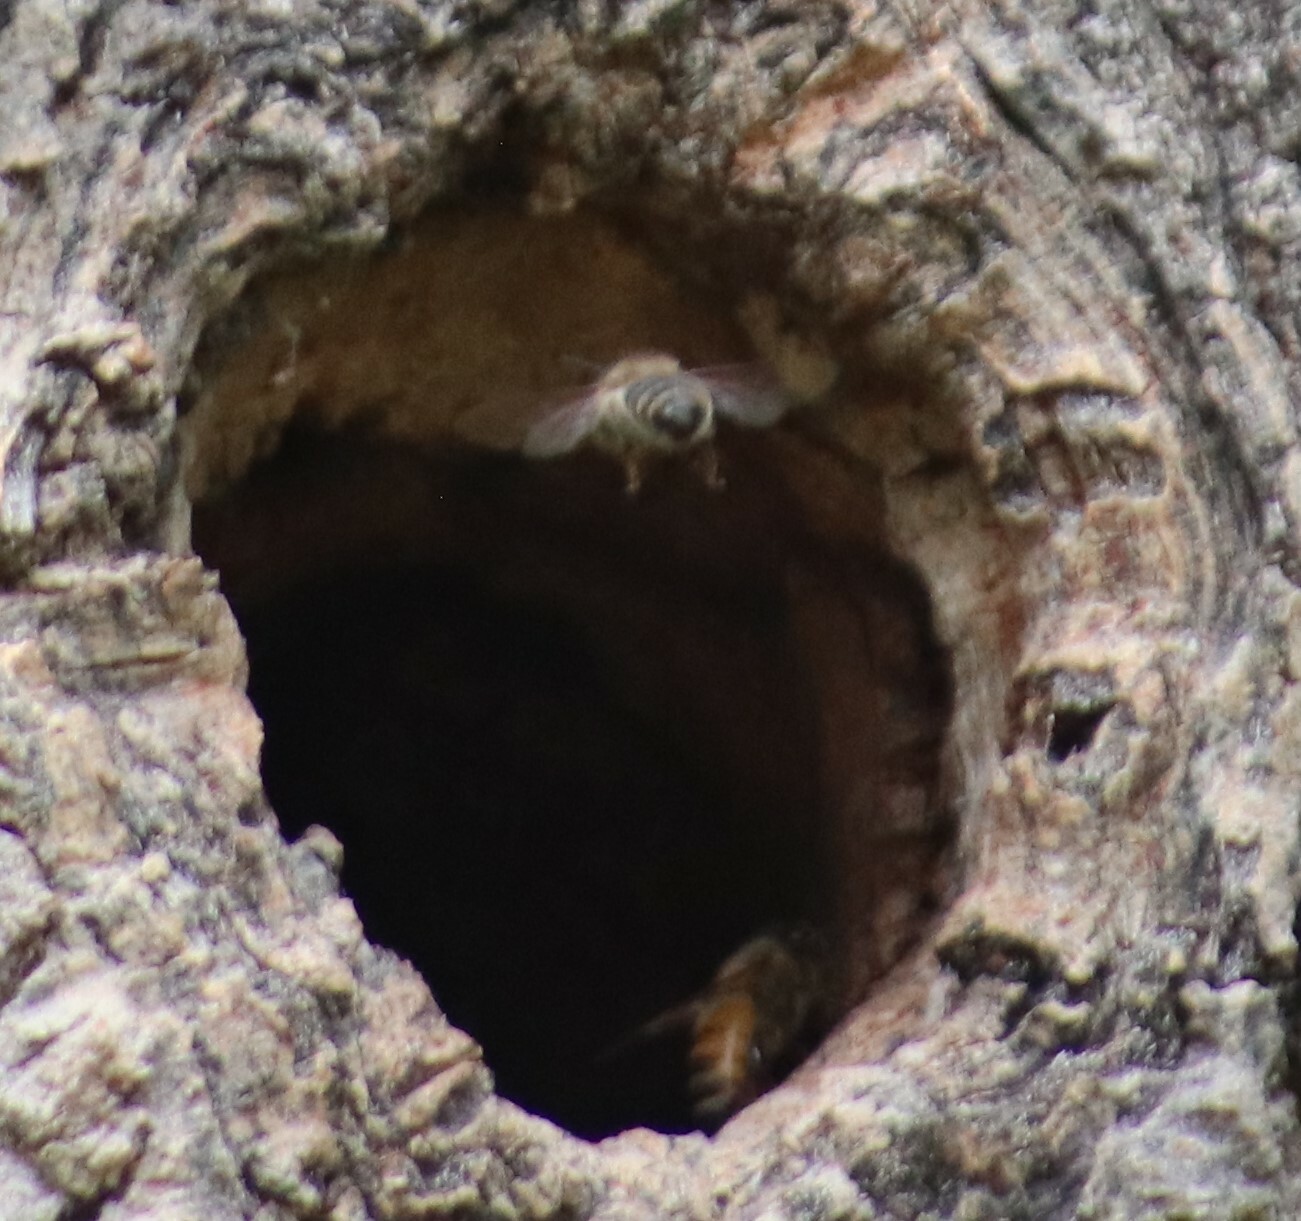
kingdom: Animalia
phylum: Arthropoda
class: Insecta
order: Hymenoptera
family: Apidae
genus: Apis
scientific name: Apis mellifera
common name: Honey bee
